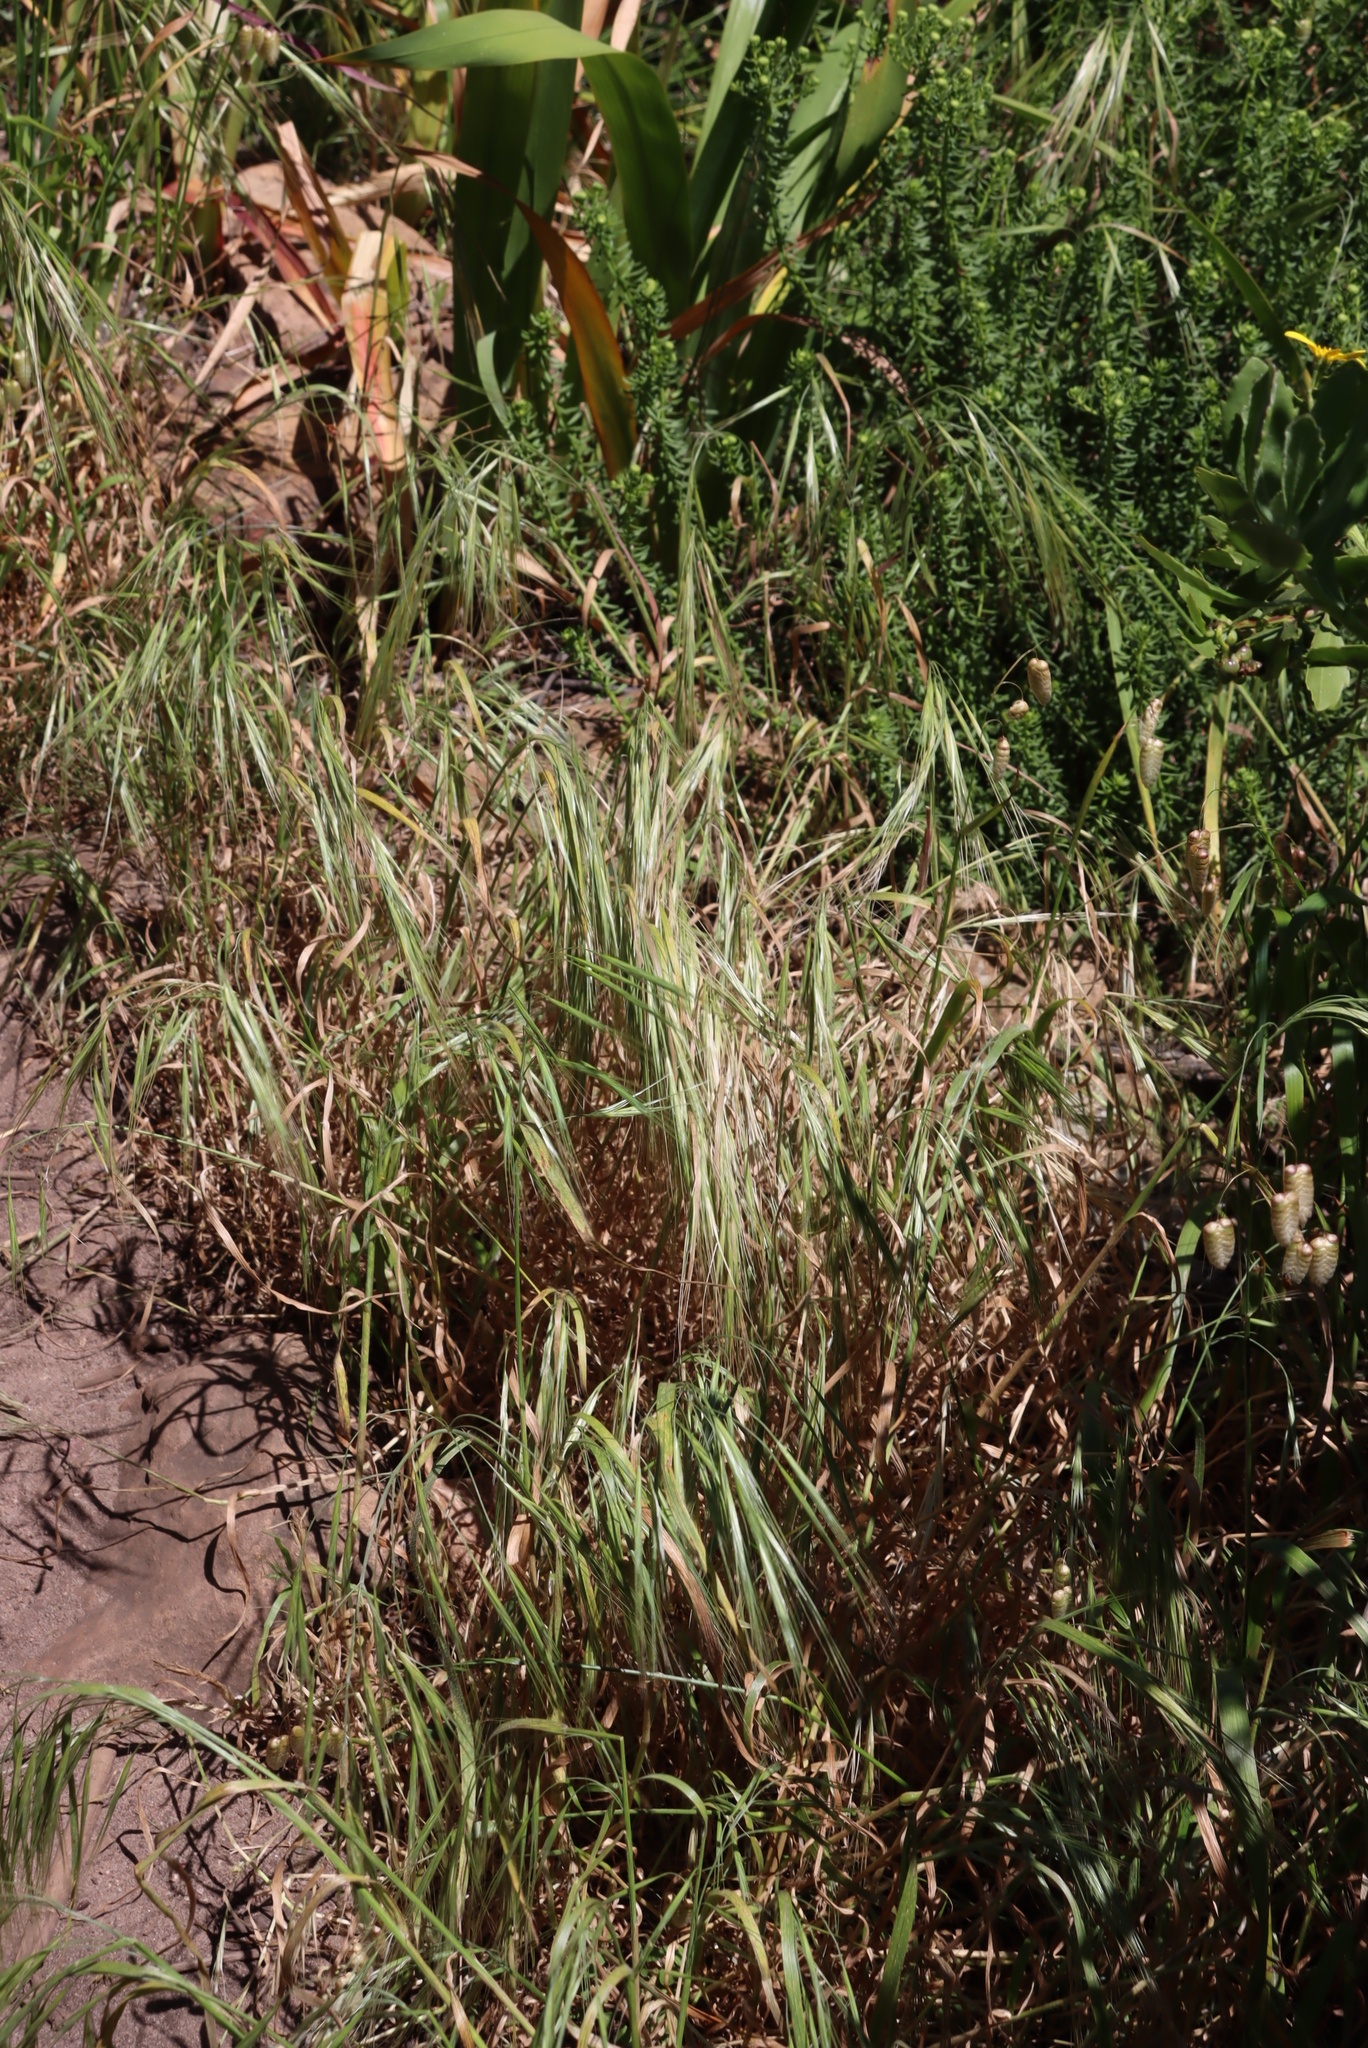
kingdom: Plantae
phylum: Tracheophyta
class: Liliopsida
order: Poales
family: Poaceae
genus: Bromus
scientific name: Bromus diandrus
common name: Ripgut brome
